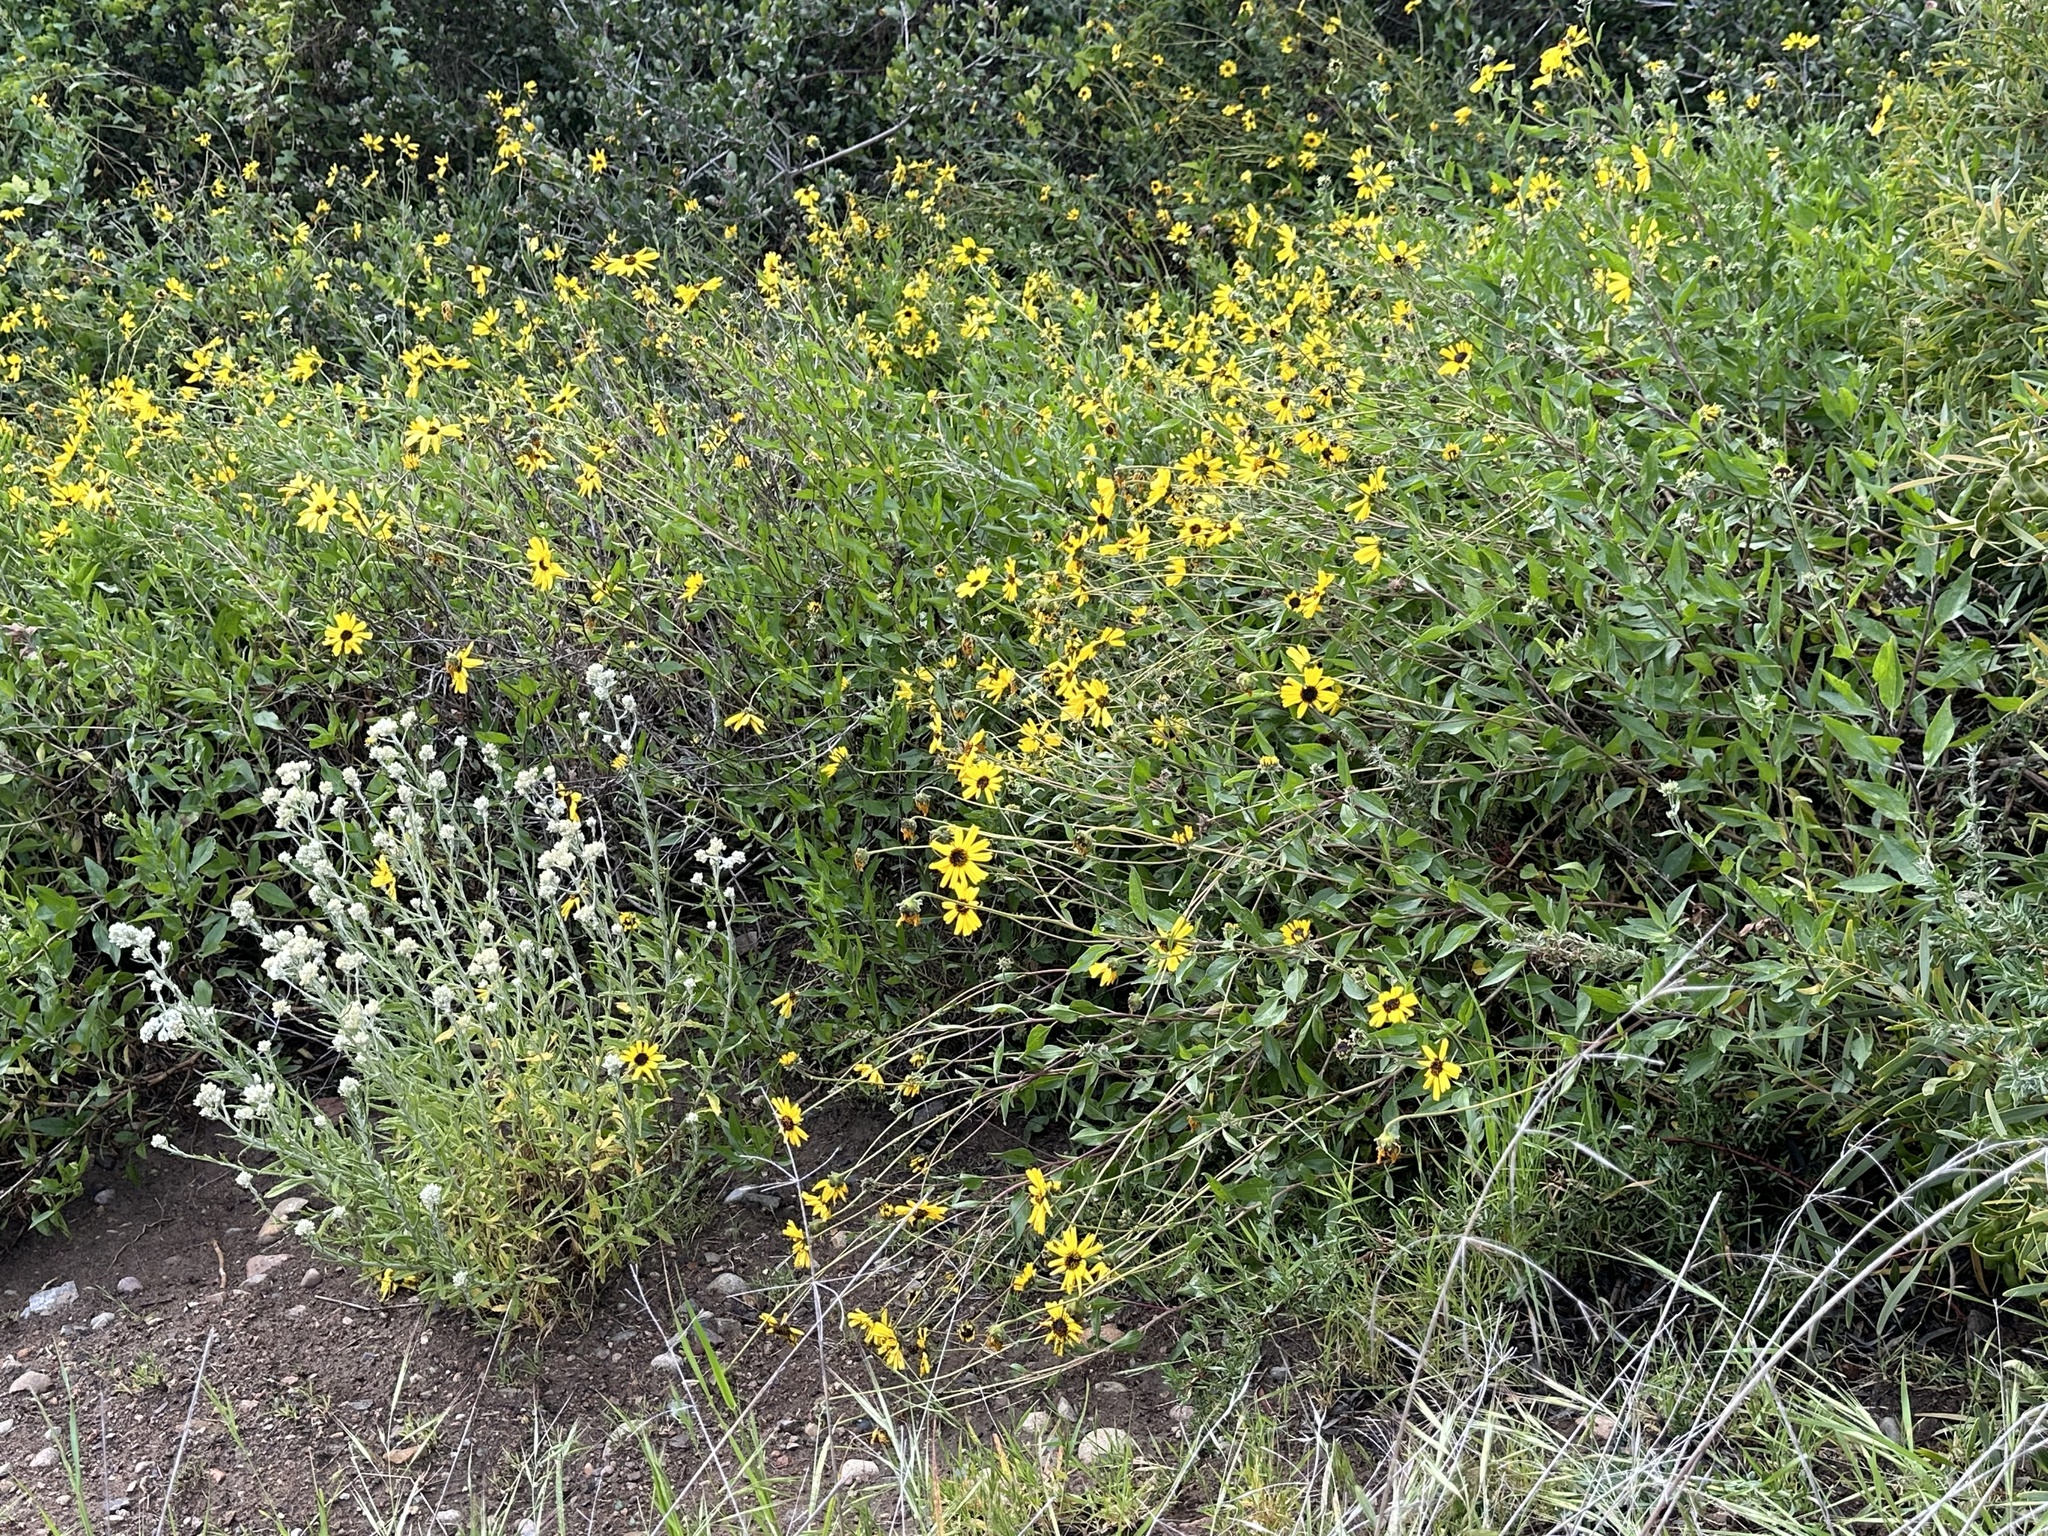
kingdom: Plantae
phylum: Tracheophyta
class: Magnoliopsida
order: Asterales
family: Asteraceae
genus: Encelia
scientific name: Encelia californica
